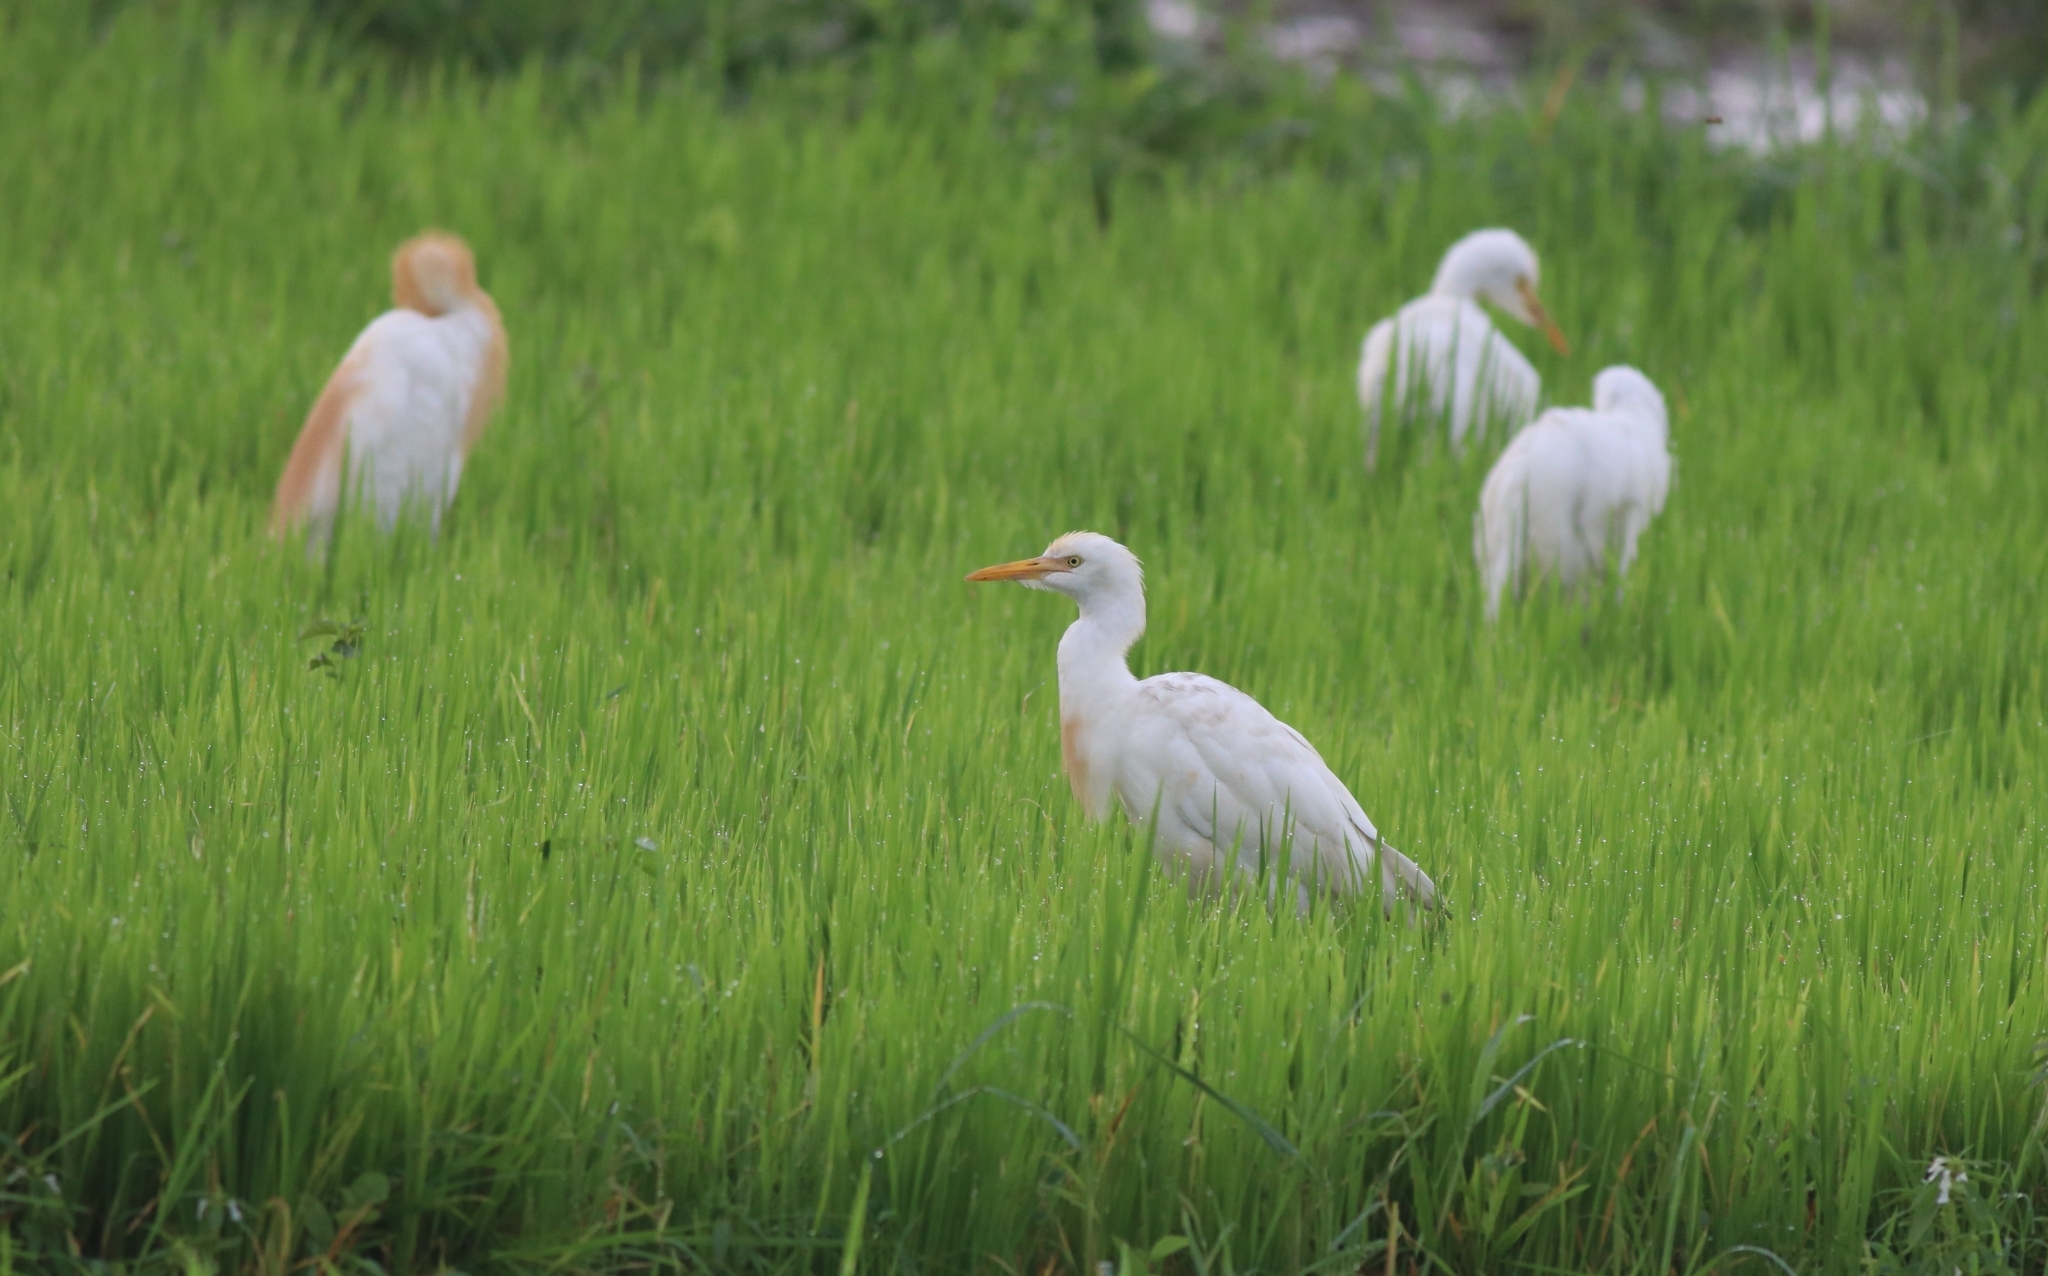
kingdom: Animalia
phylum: Chordata
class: Aves
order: Pelecaniformes
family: Ardeidae
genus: Bubulcus
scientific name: Bubulcus coromandus
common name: Eastern cattle egret
